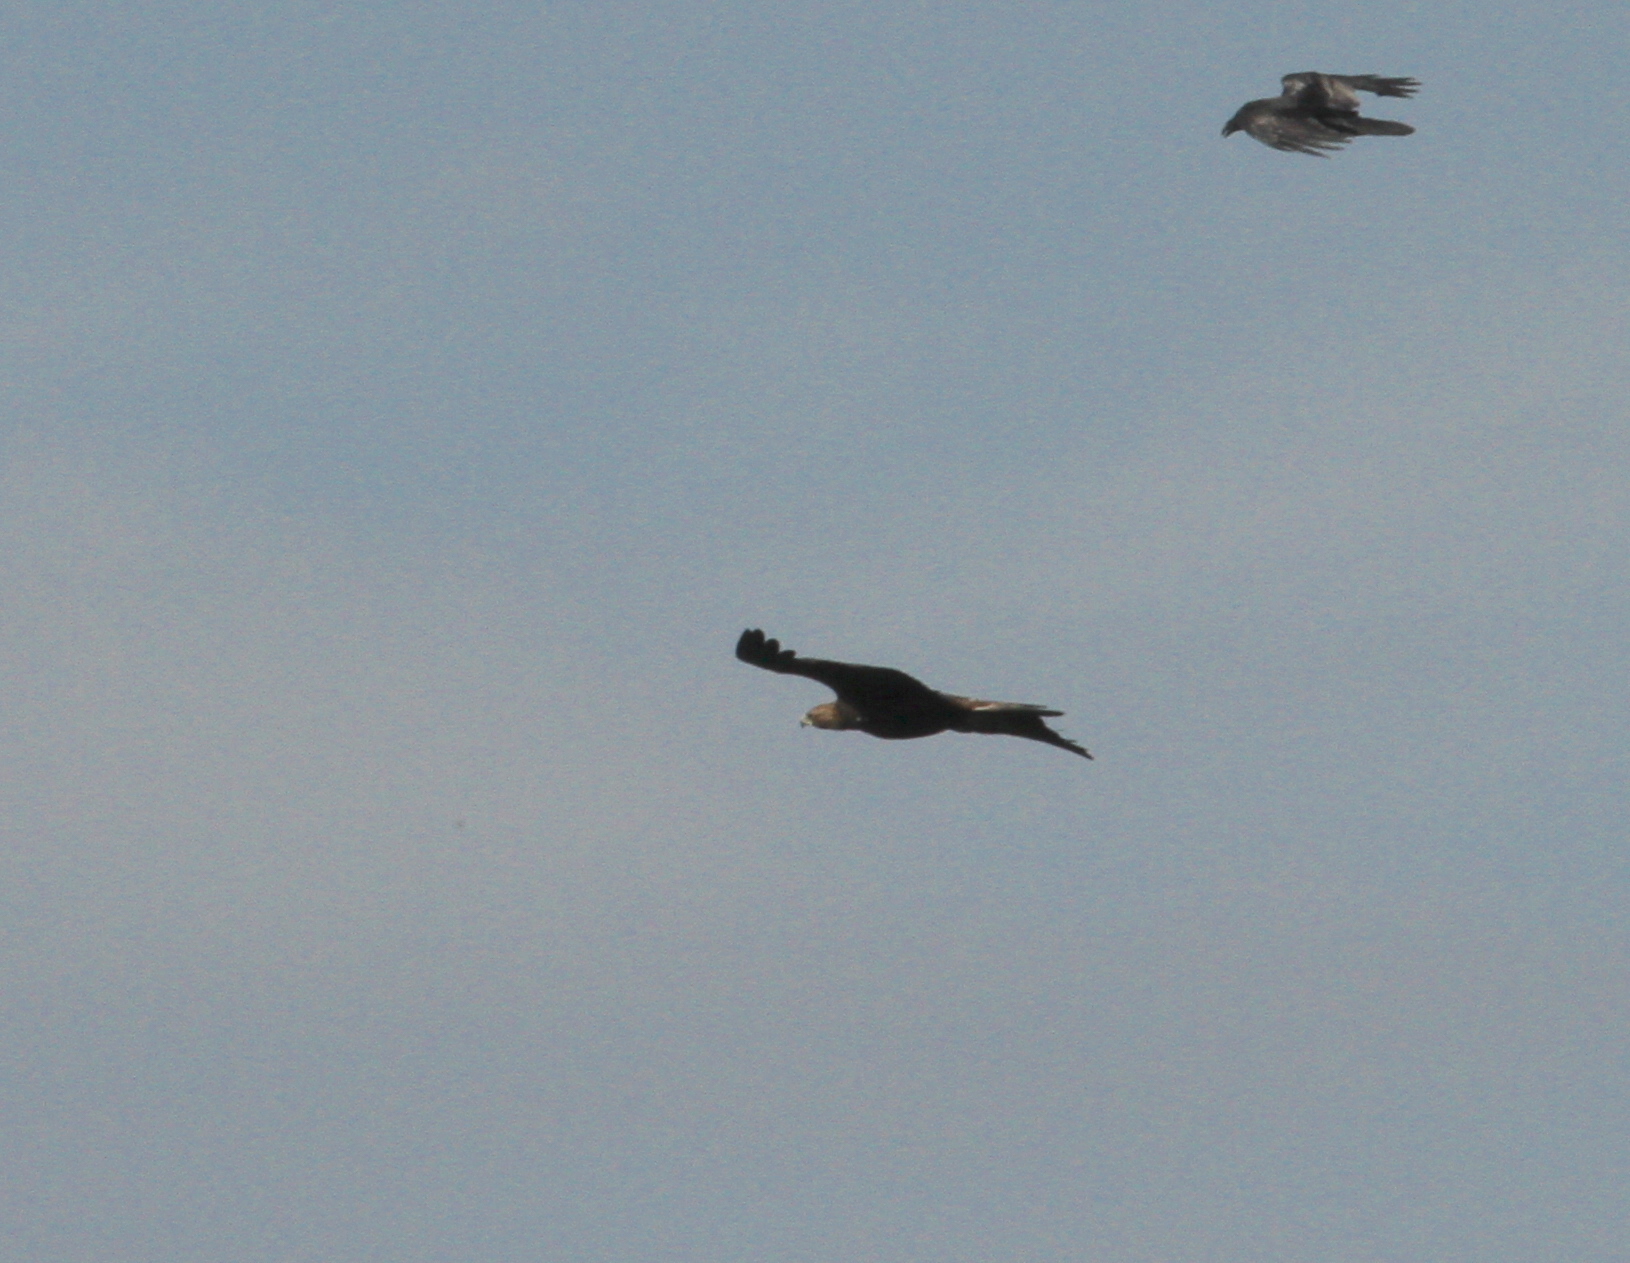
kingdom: Animalia
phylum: Chordata
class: Aves
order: Accipitriformes
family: Accipitridae
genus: Aquila
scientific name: Aquila chrysaetos
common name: Golden eagle
